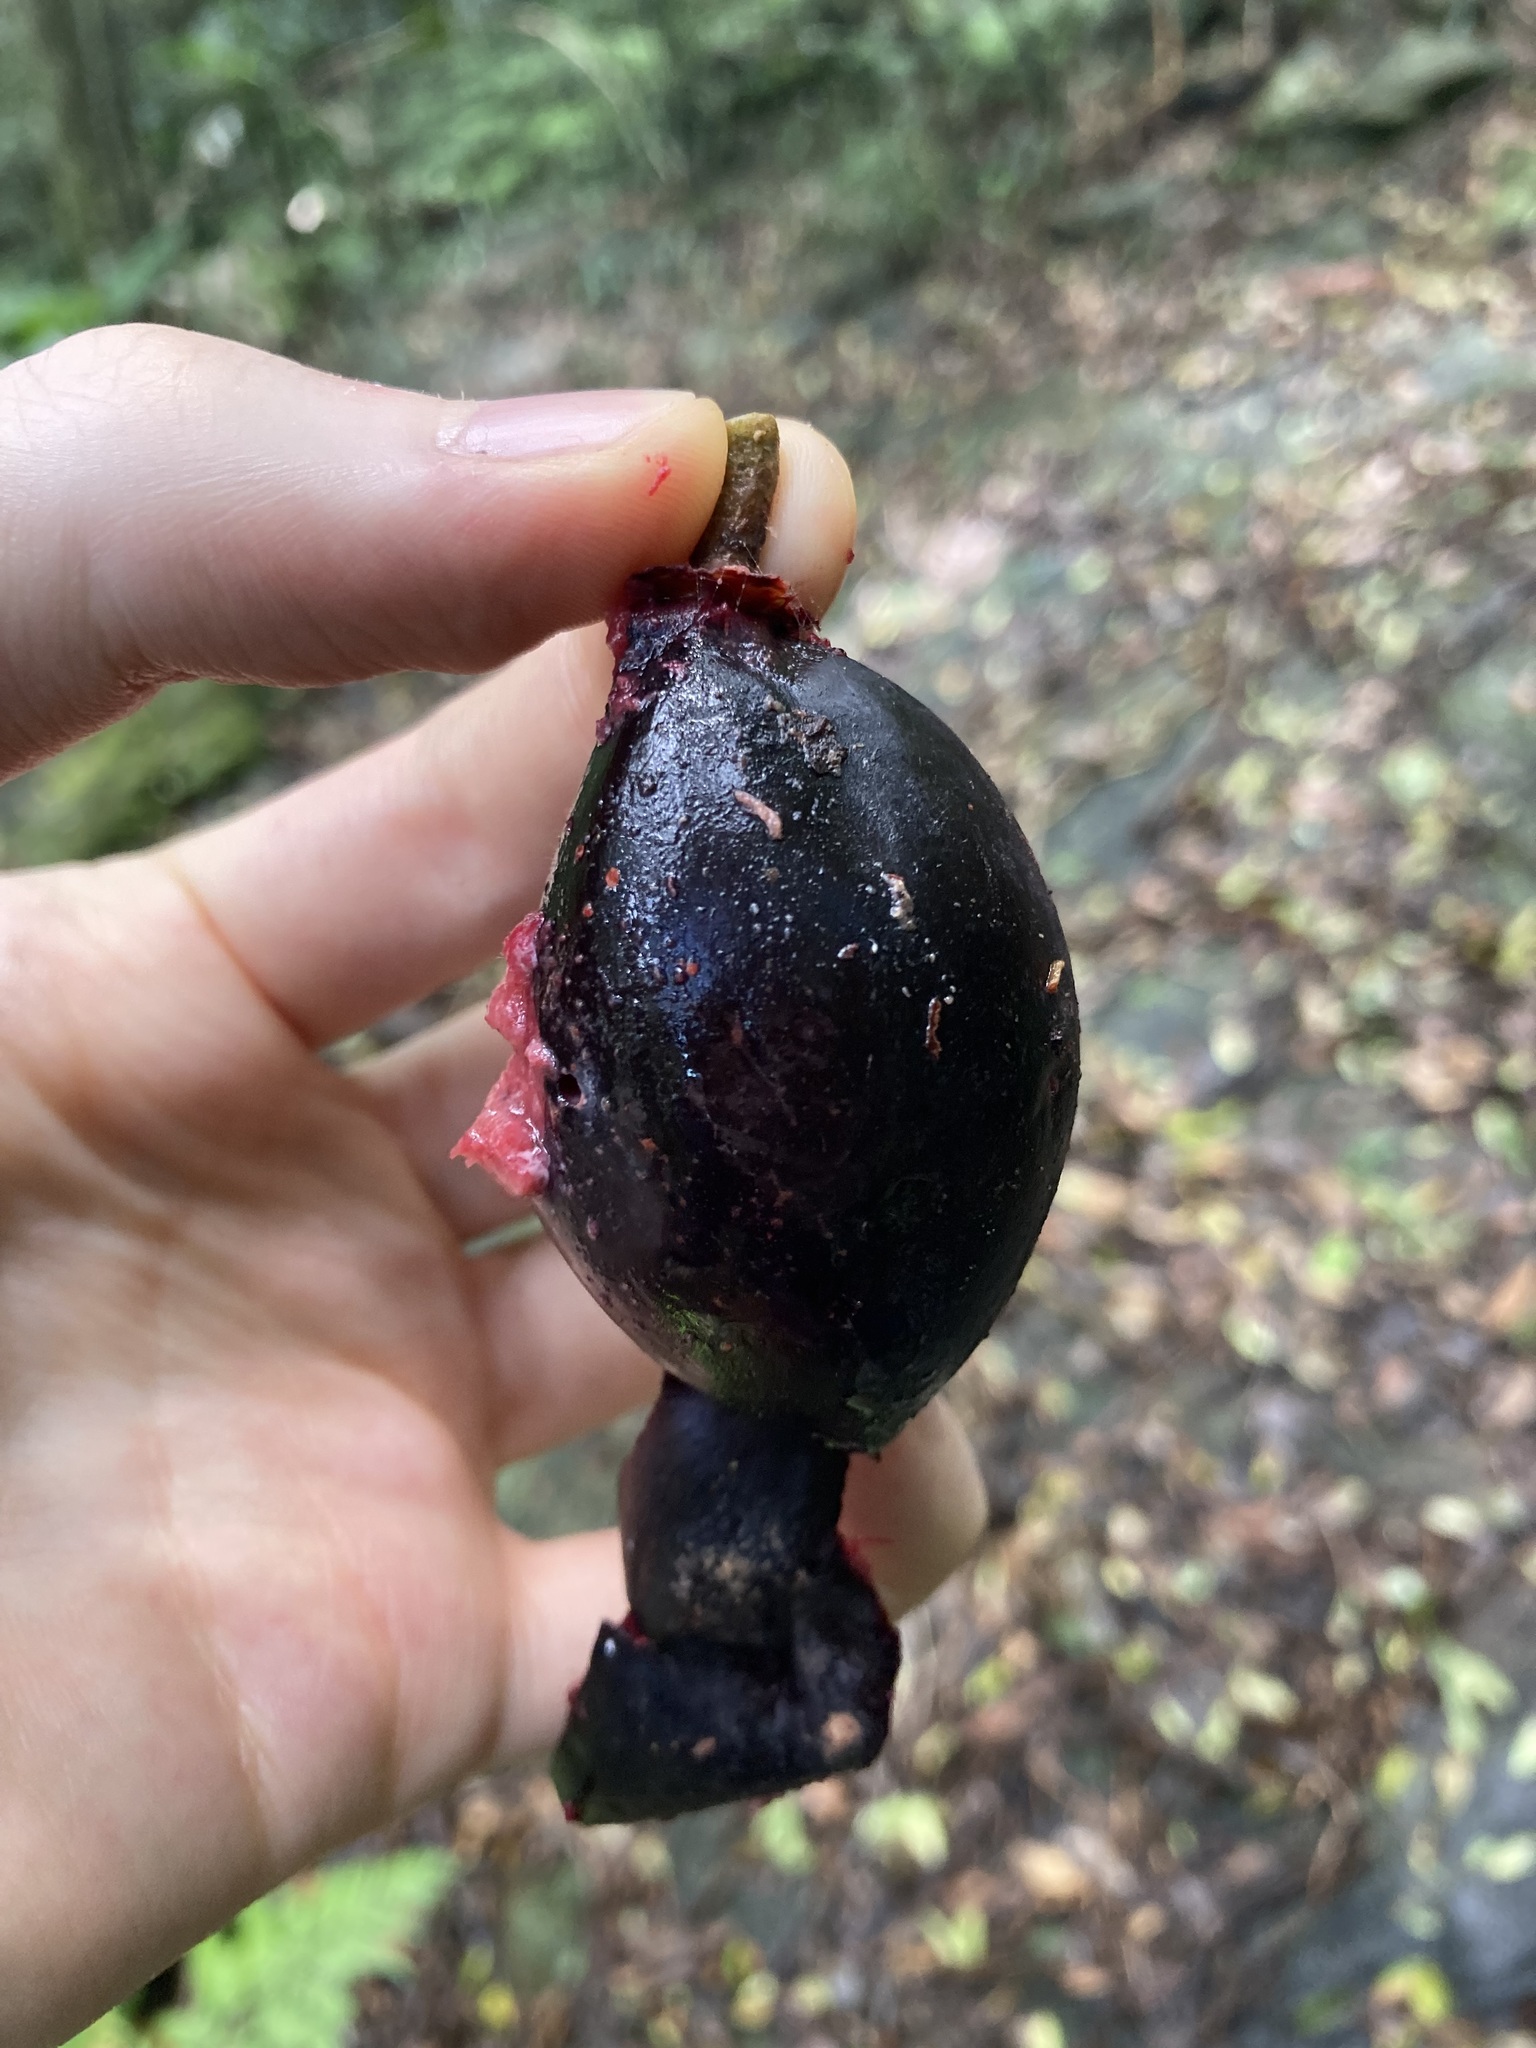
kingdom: Plantae
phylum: Tracheophyta
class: Magnoliopsida
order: Ericales
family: Sapotaceae
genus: Planchonella
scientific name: Planchonella australis
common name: Black apple
